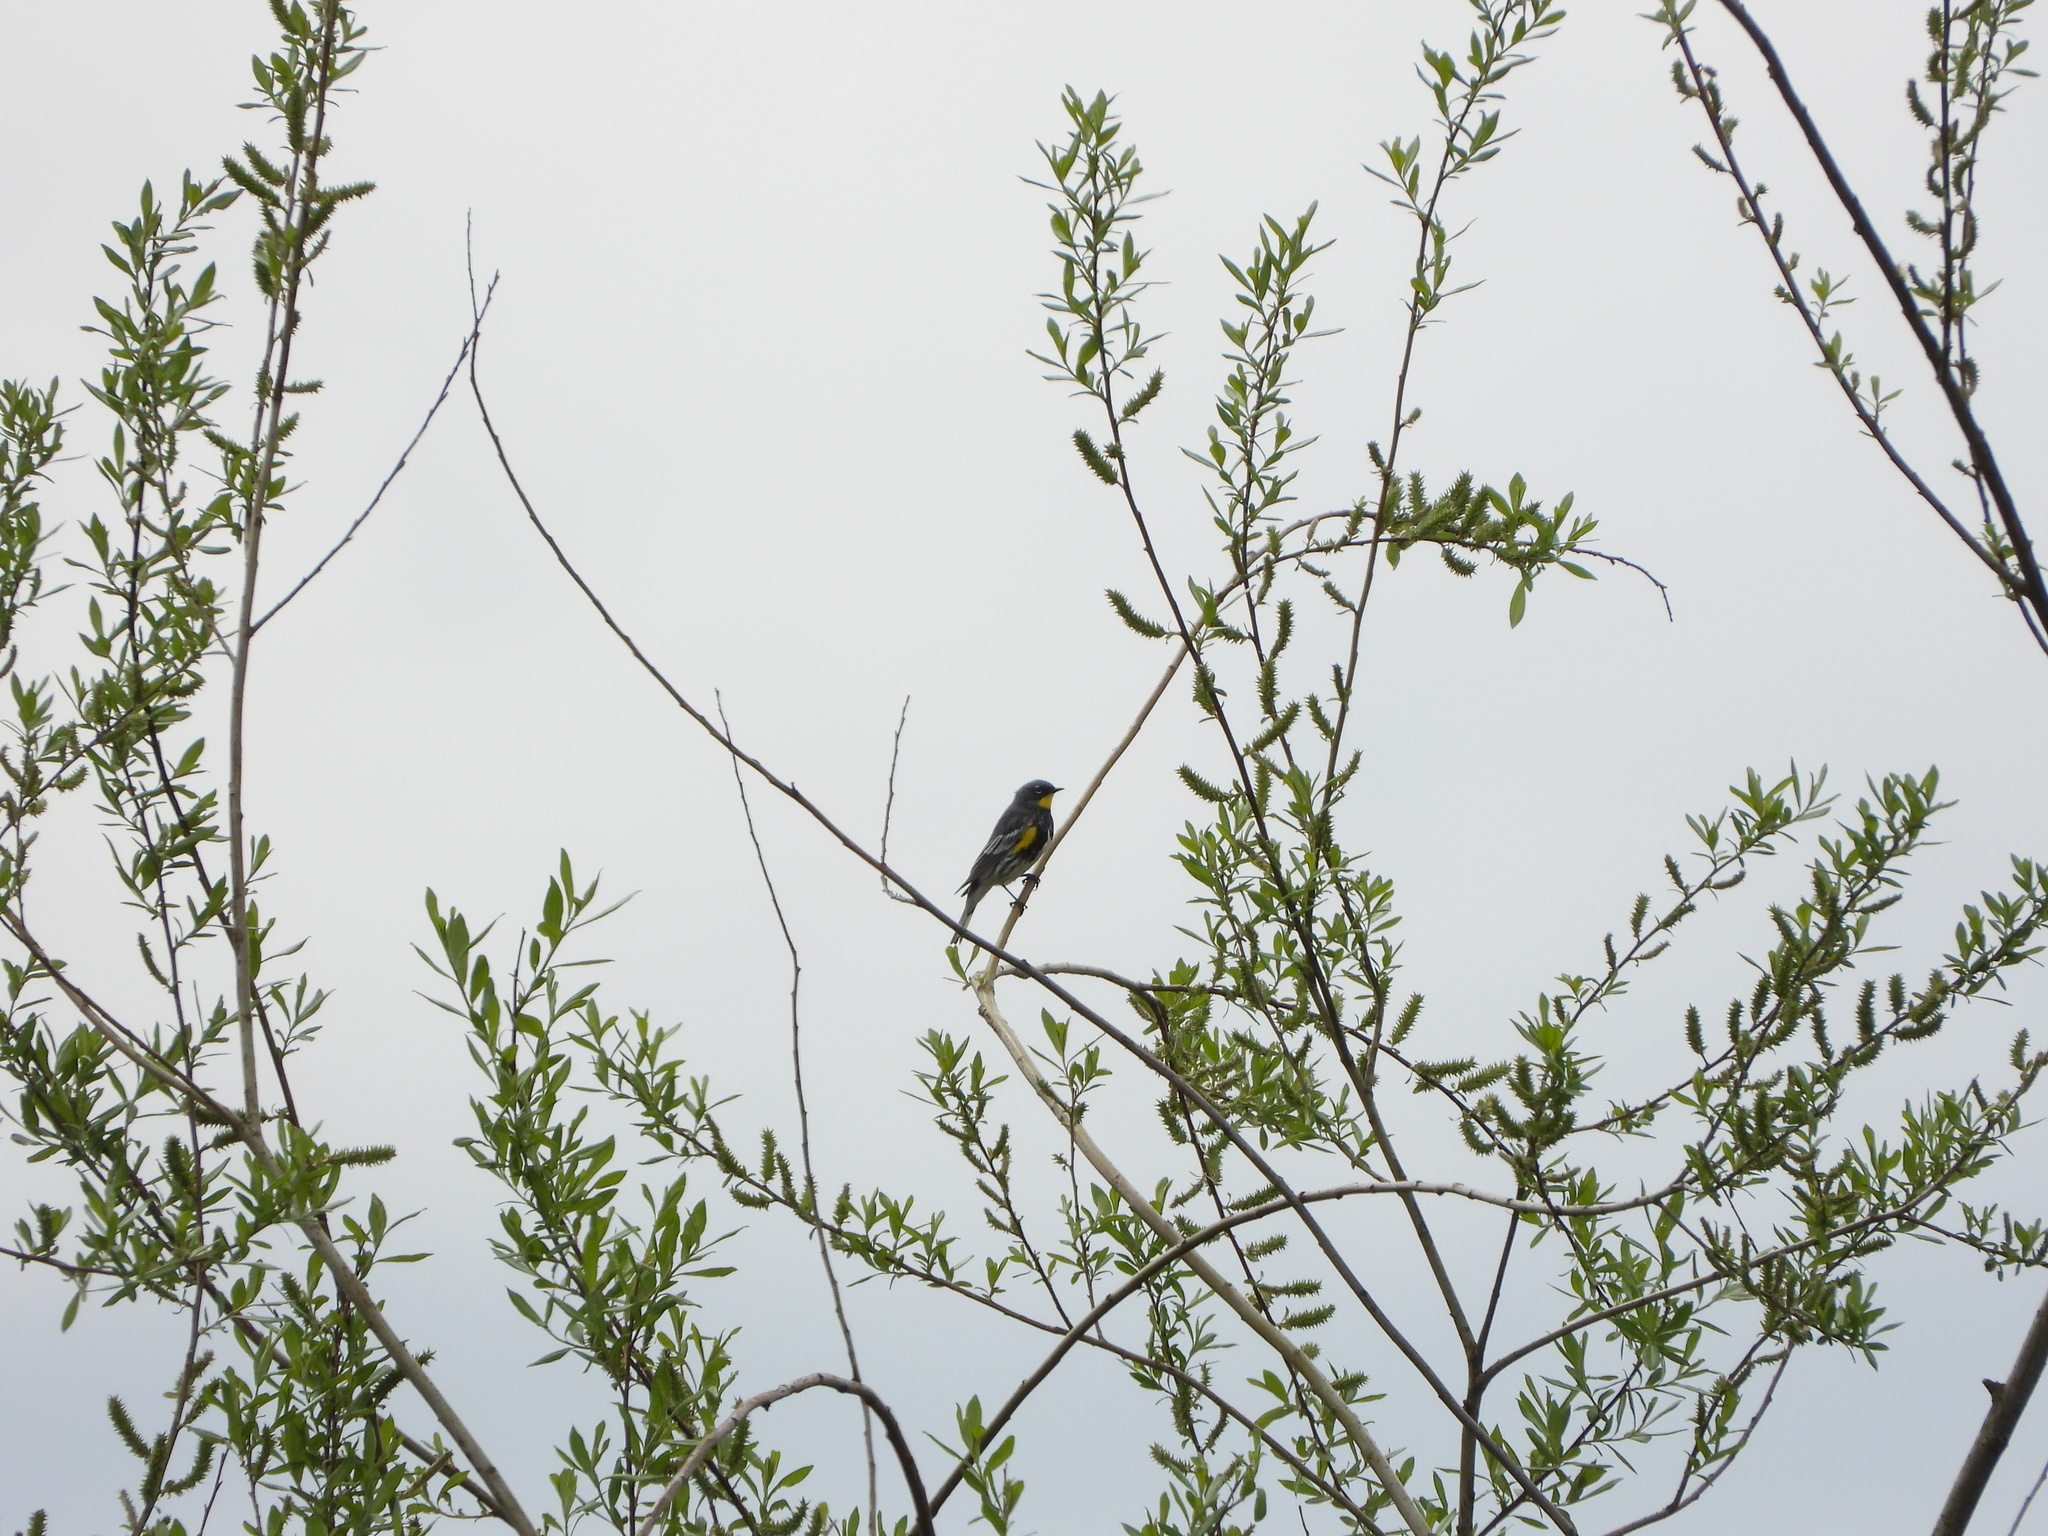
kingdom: Animalia
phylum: Chordata
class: Aves
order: Passeriformes
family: Parulidae
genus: Setophaga
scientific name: Setophaga auduboni
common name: Audubon's warbler
